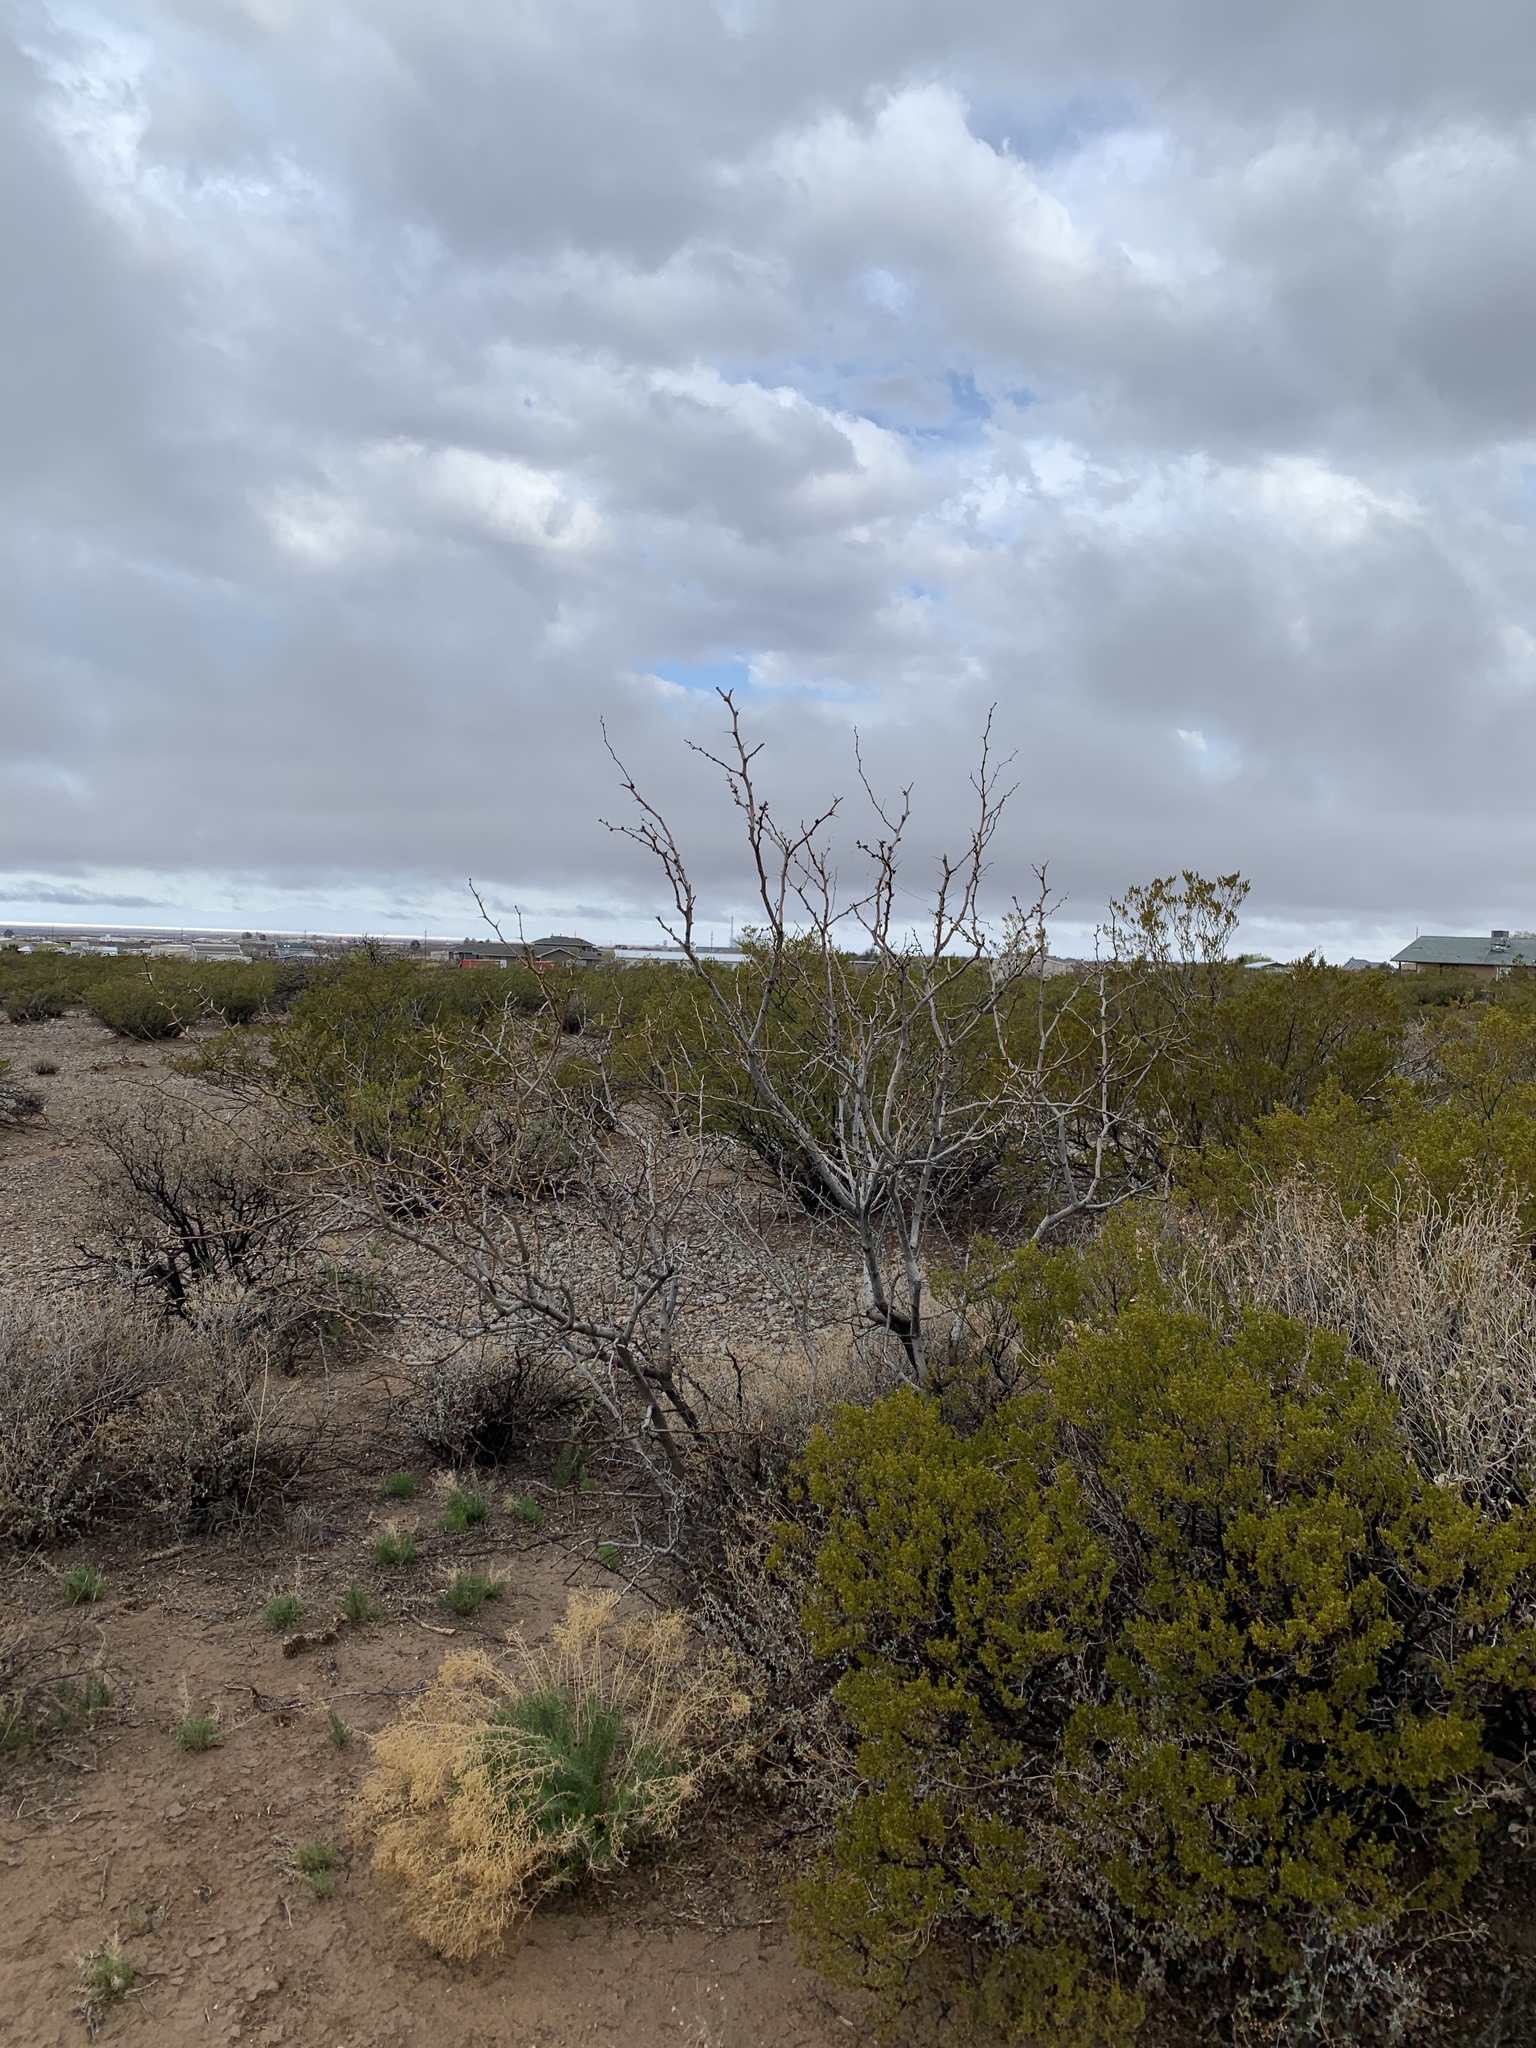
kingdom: Plantae
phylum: Tracheophyta
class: Magnoliopsida
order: Zygophyllales
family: Zygophyllaceae
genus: Larrea
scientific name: Larrea tridentata
